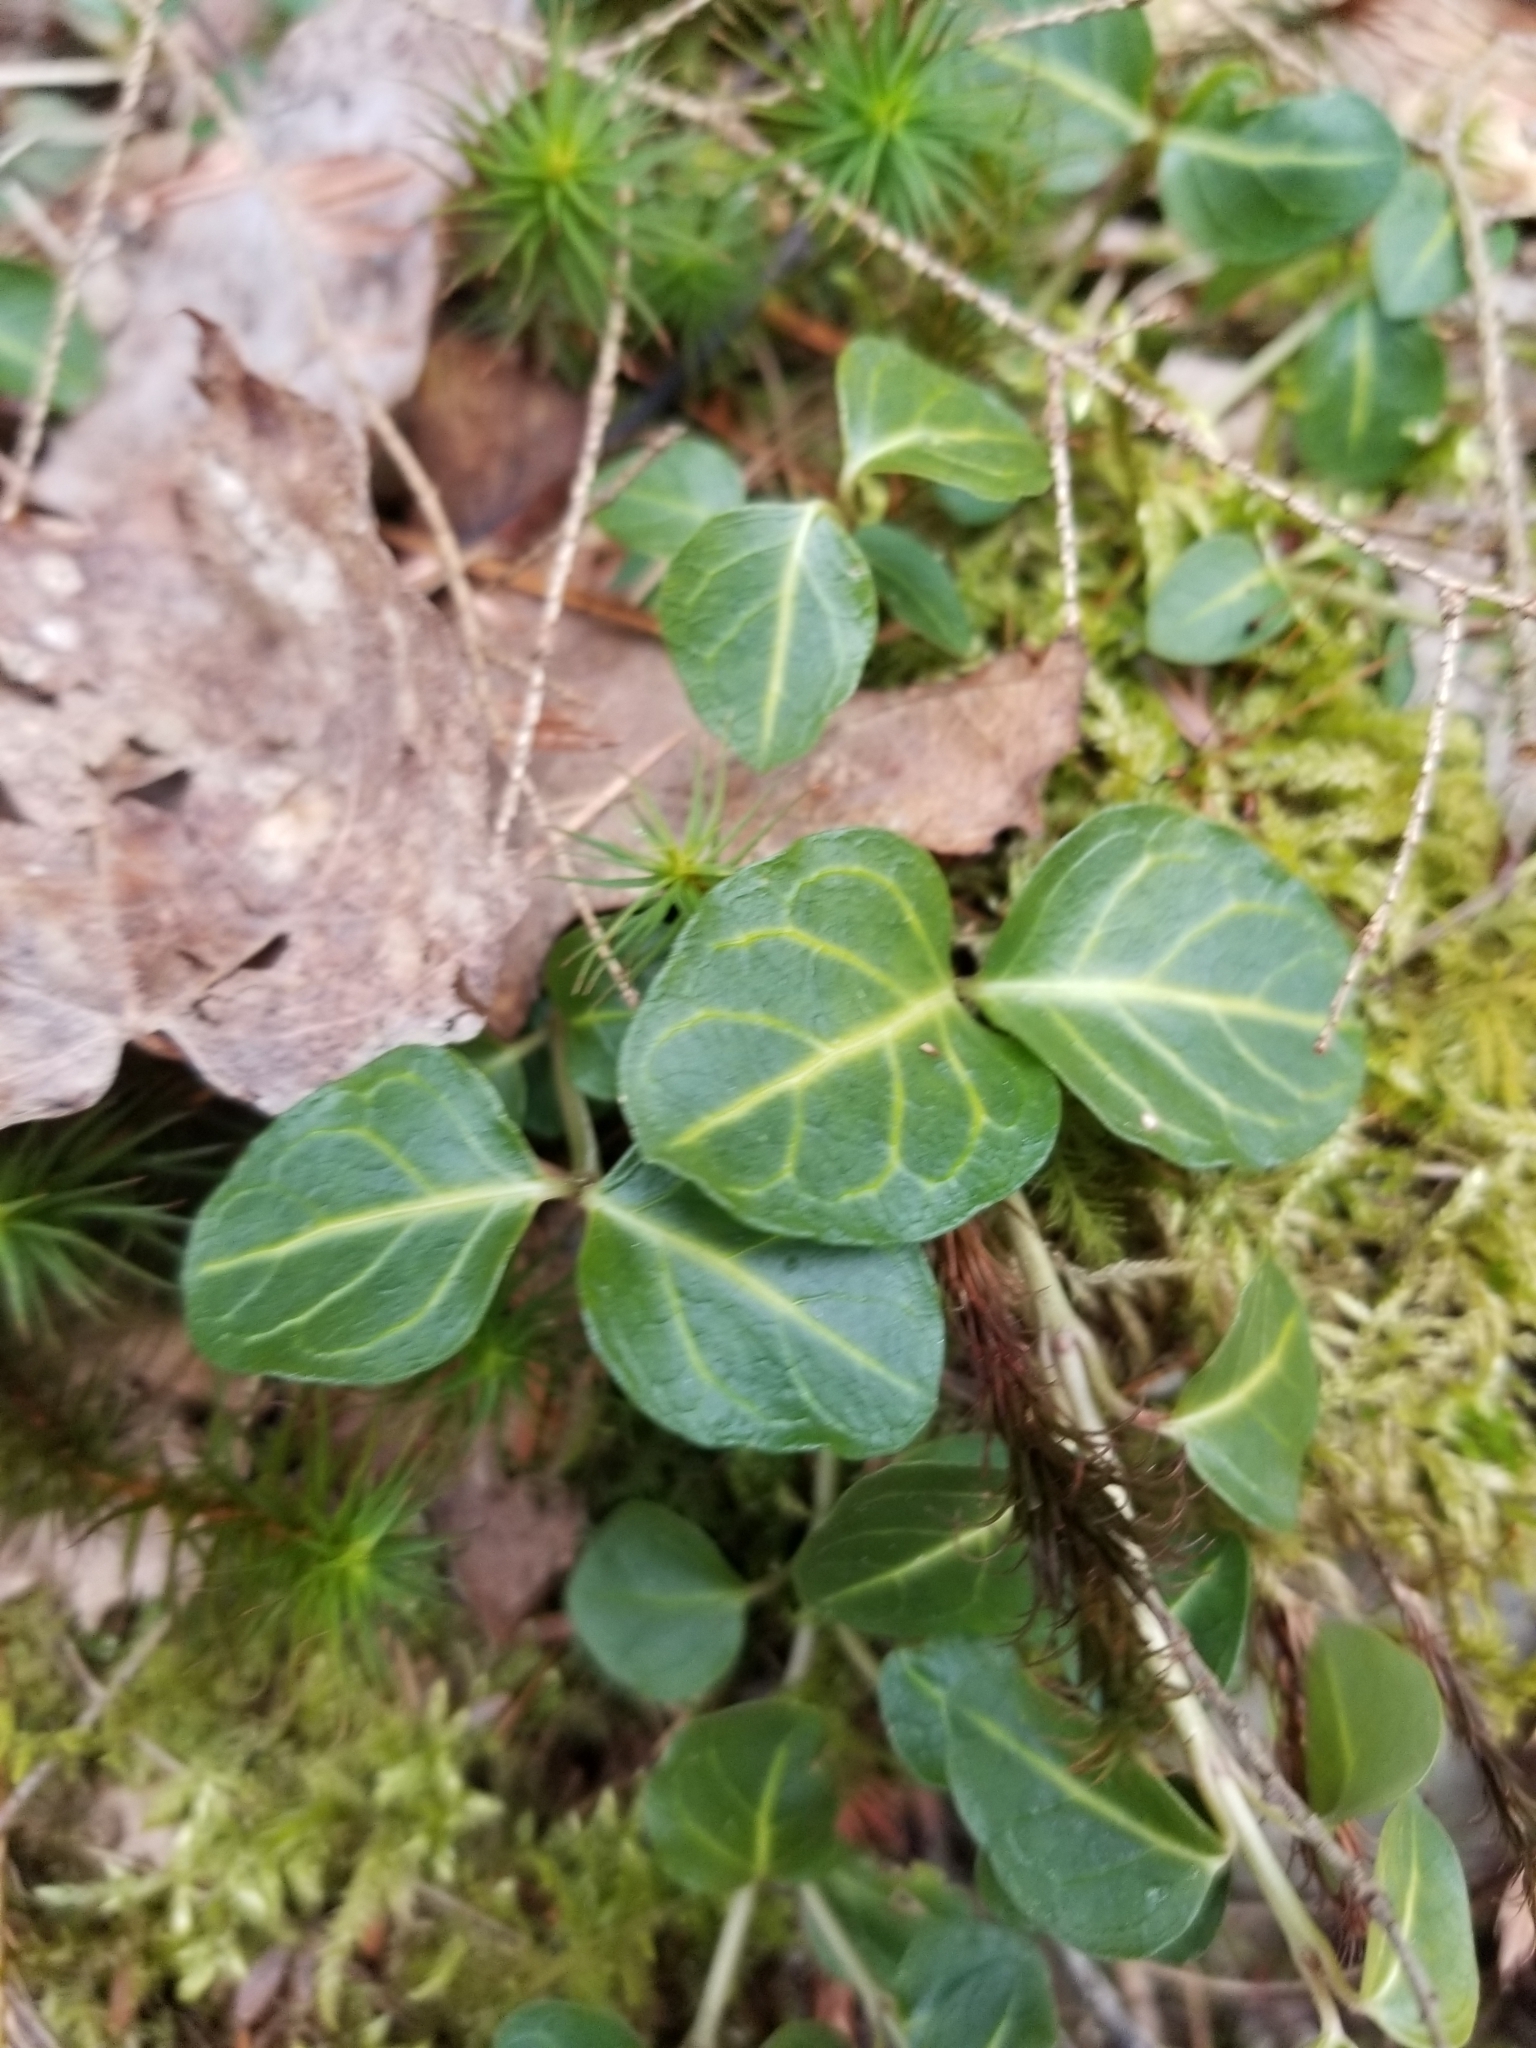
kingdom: Plantae
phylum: Tracheophyta
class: Magnoliopsida
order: Gentianales
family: Rubiaceae
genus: Mitchella
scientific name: Mitchella repens
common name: Partridge-berry
